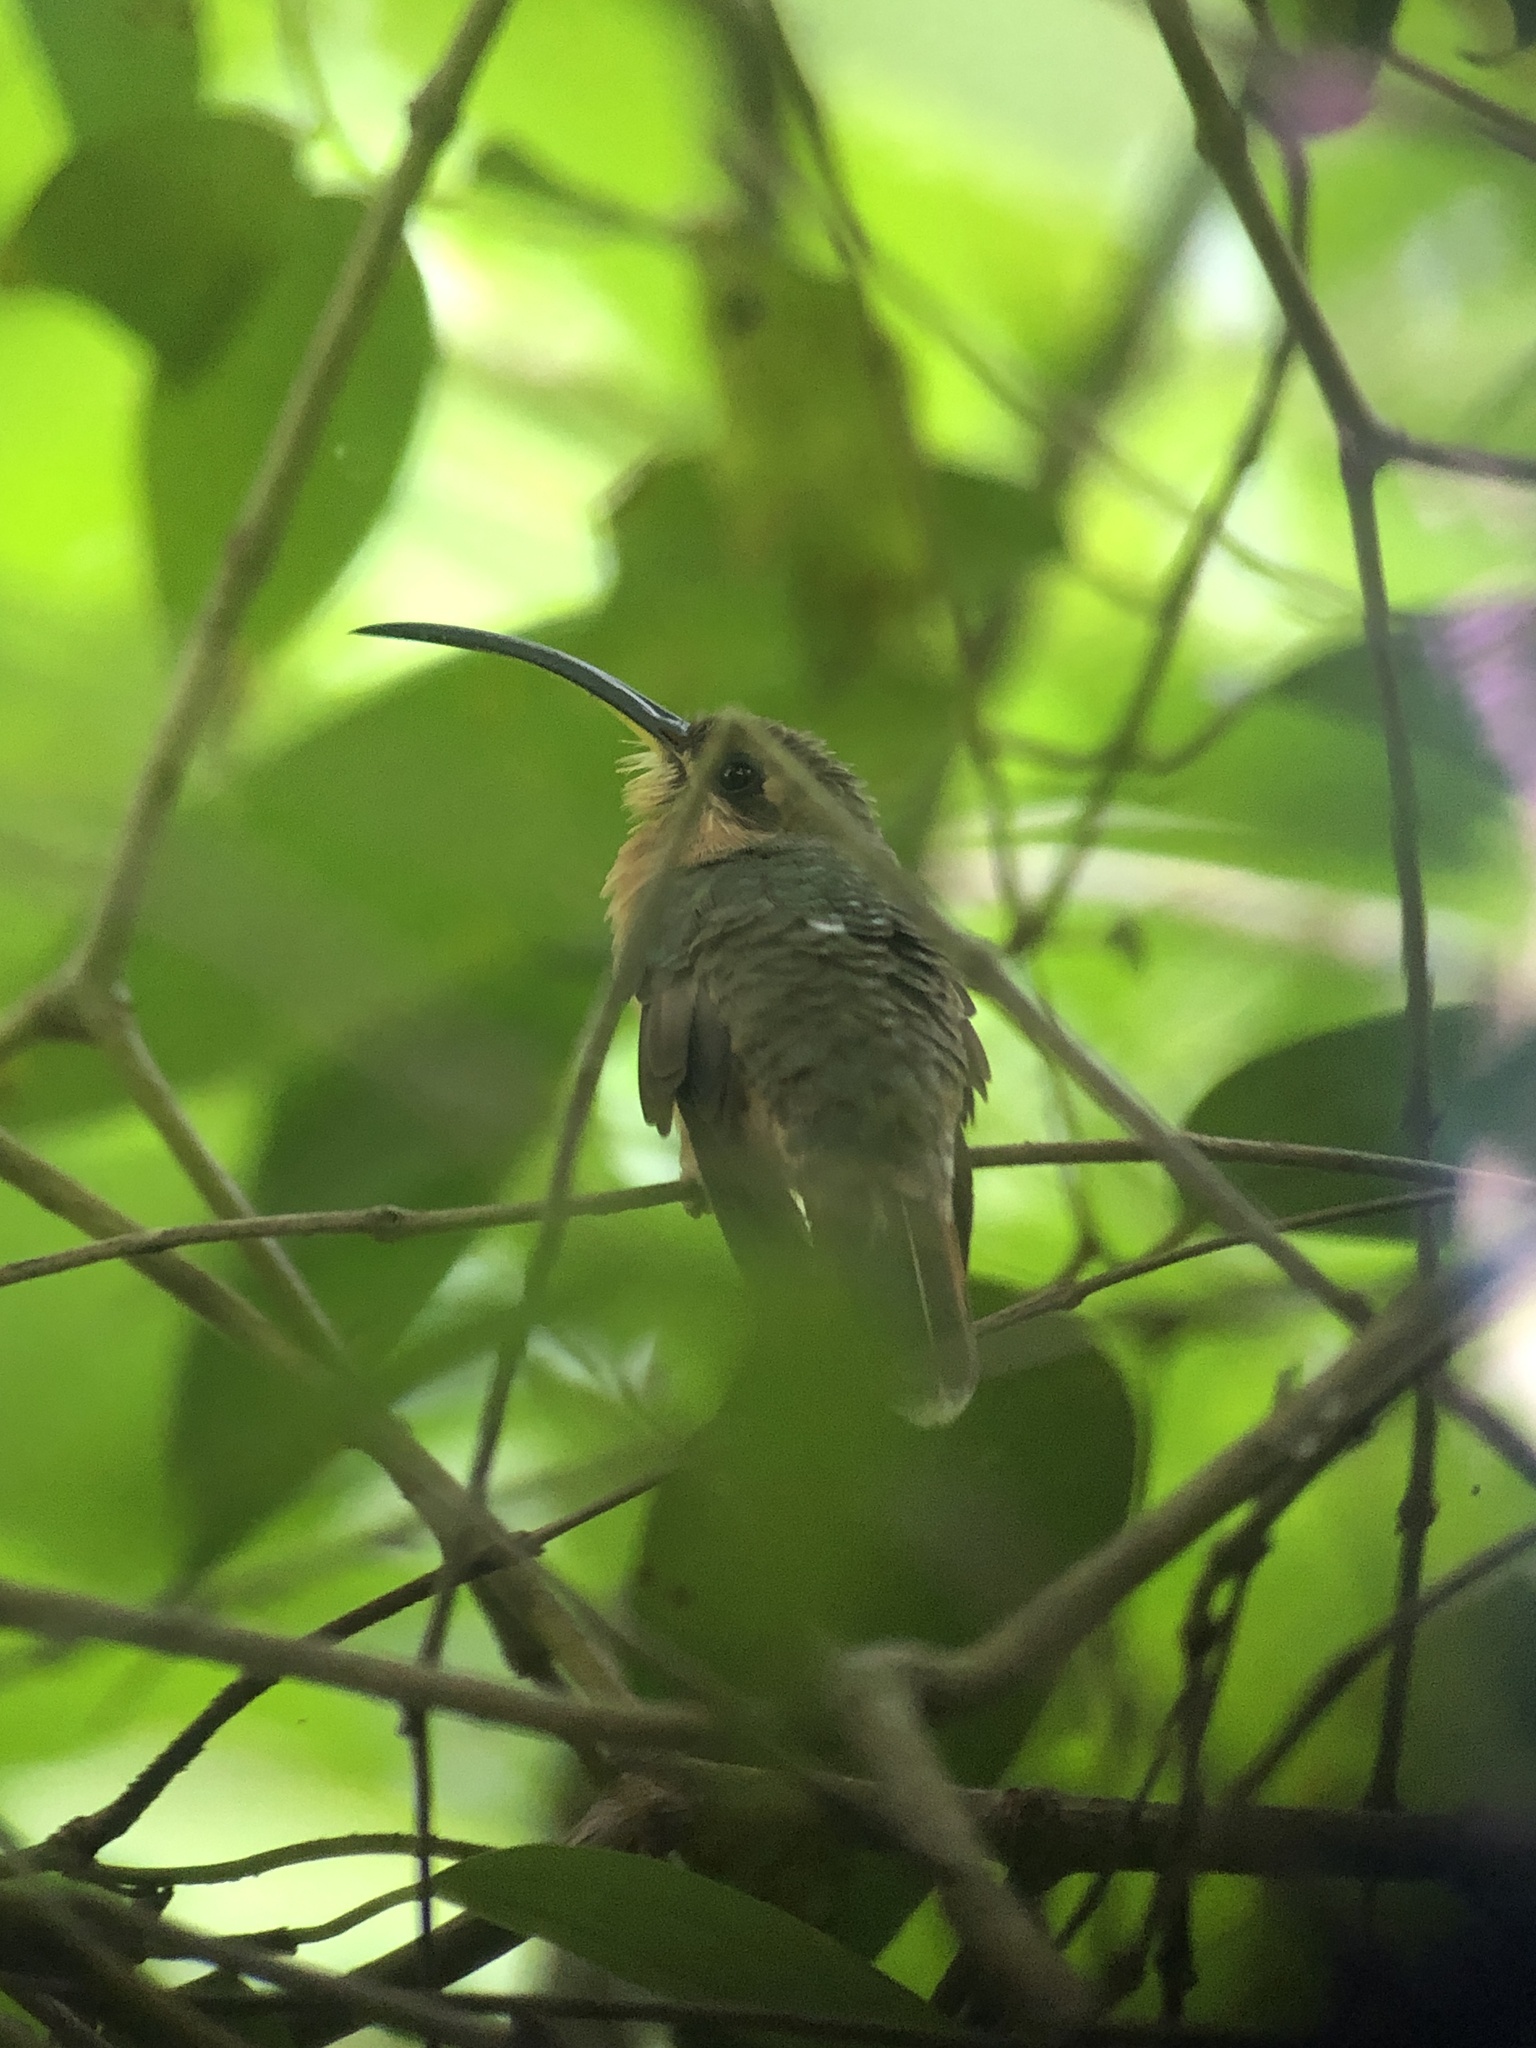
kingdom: Animalia
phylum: Chordata
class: Aves
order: Apodiformes
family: Trochilidae
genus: Glaucis
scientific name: Glaucis aeneus
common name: Bronzy hermit
